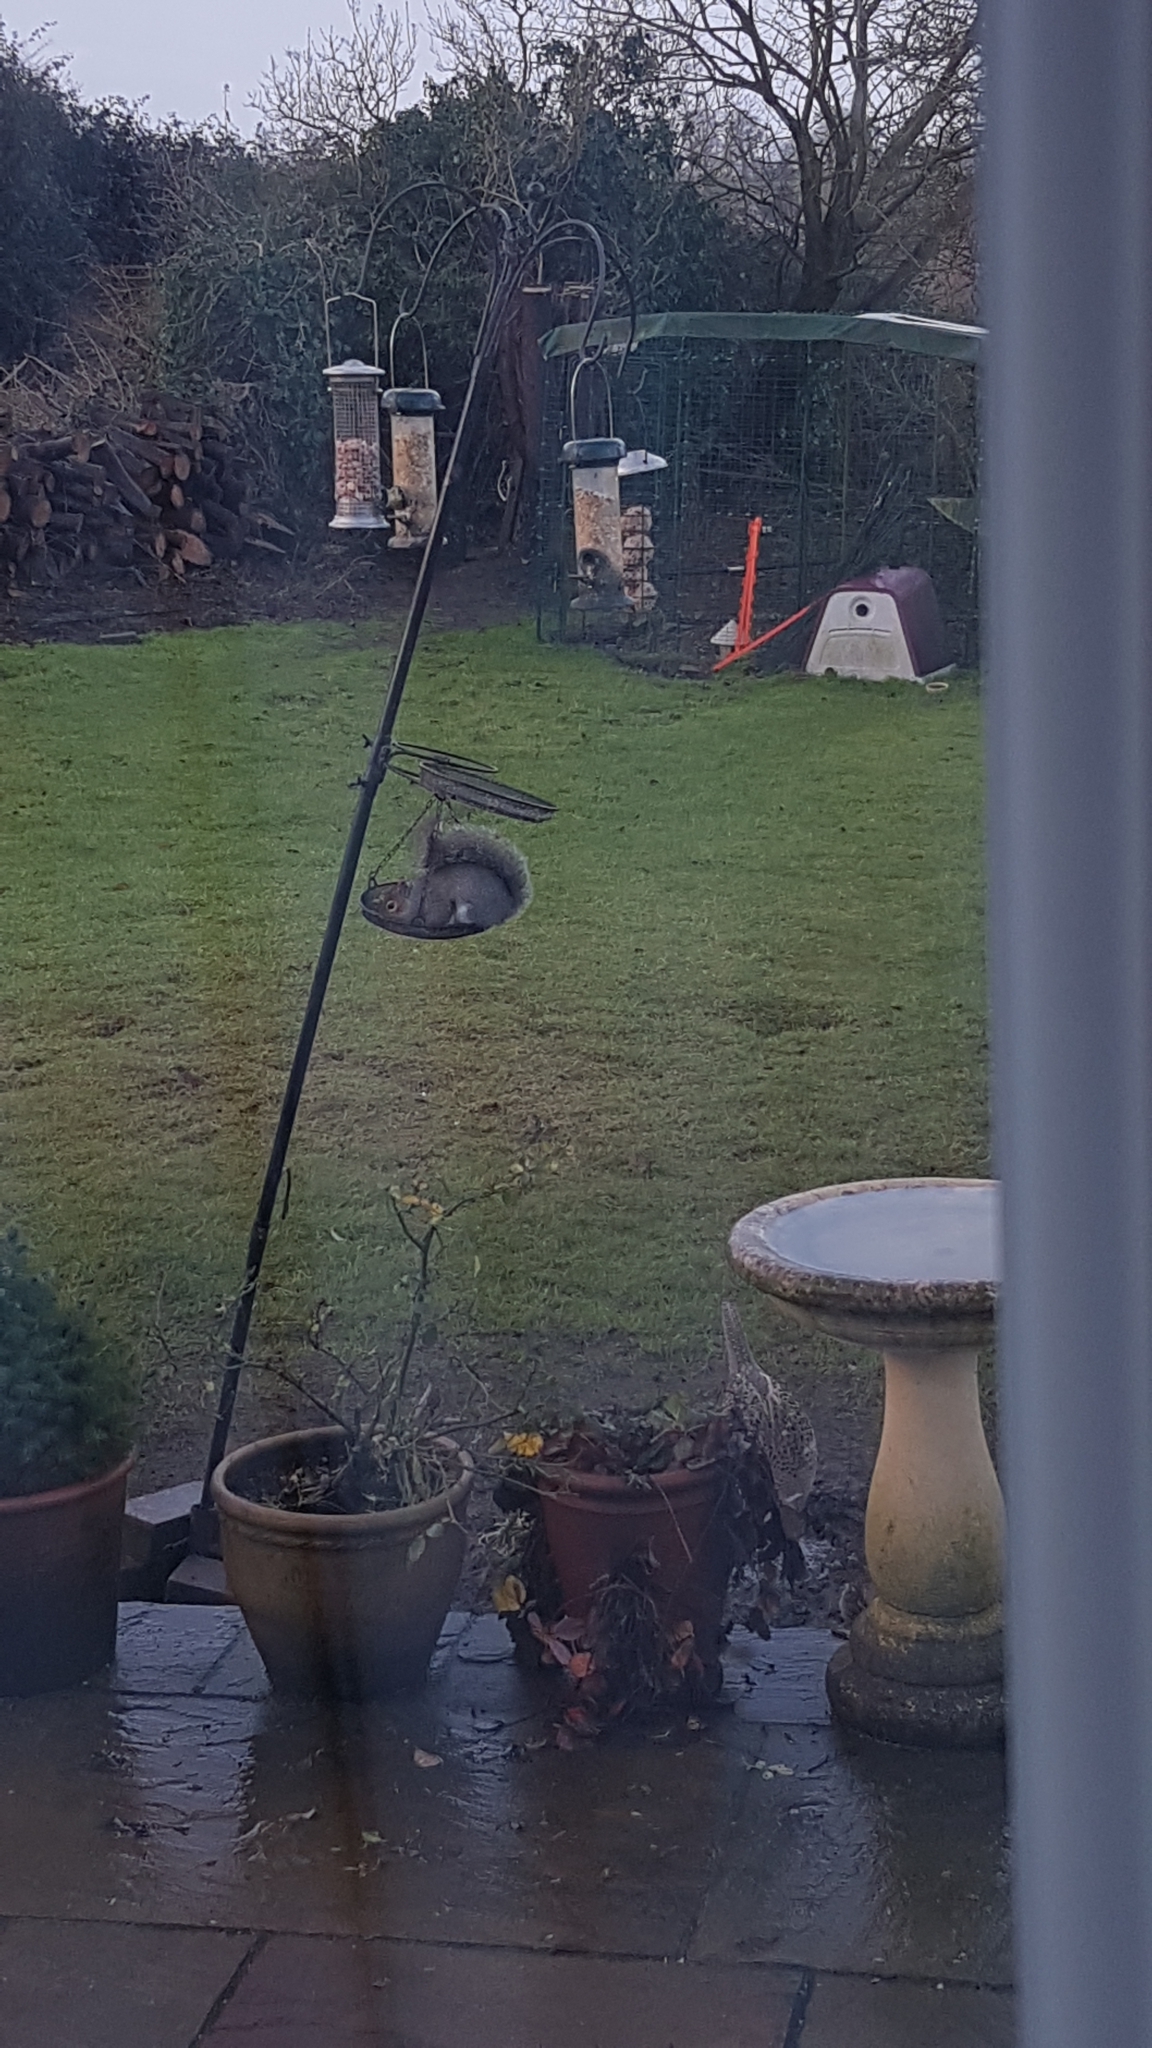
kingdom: Animalia
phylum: Chordata
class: Mammalia
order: Rodentia
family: Sciuridae
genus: Sciurus
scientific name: Sciurus carolinensis
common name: Eastern gray squirrel
